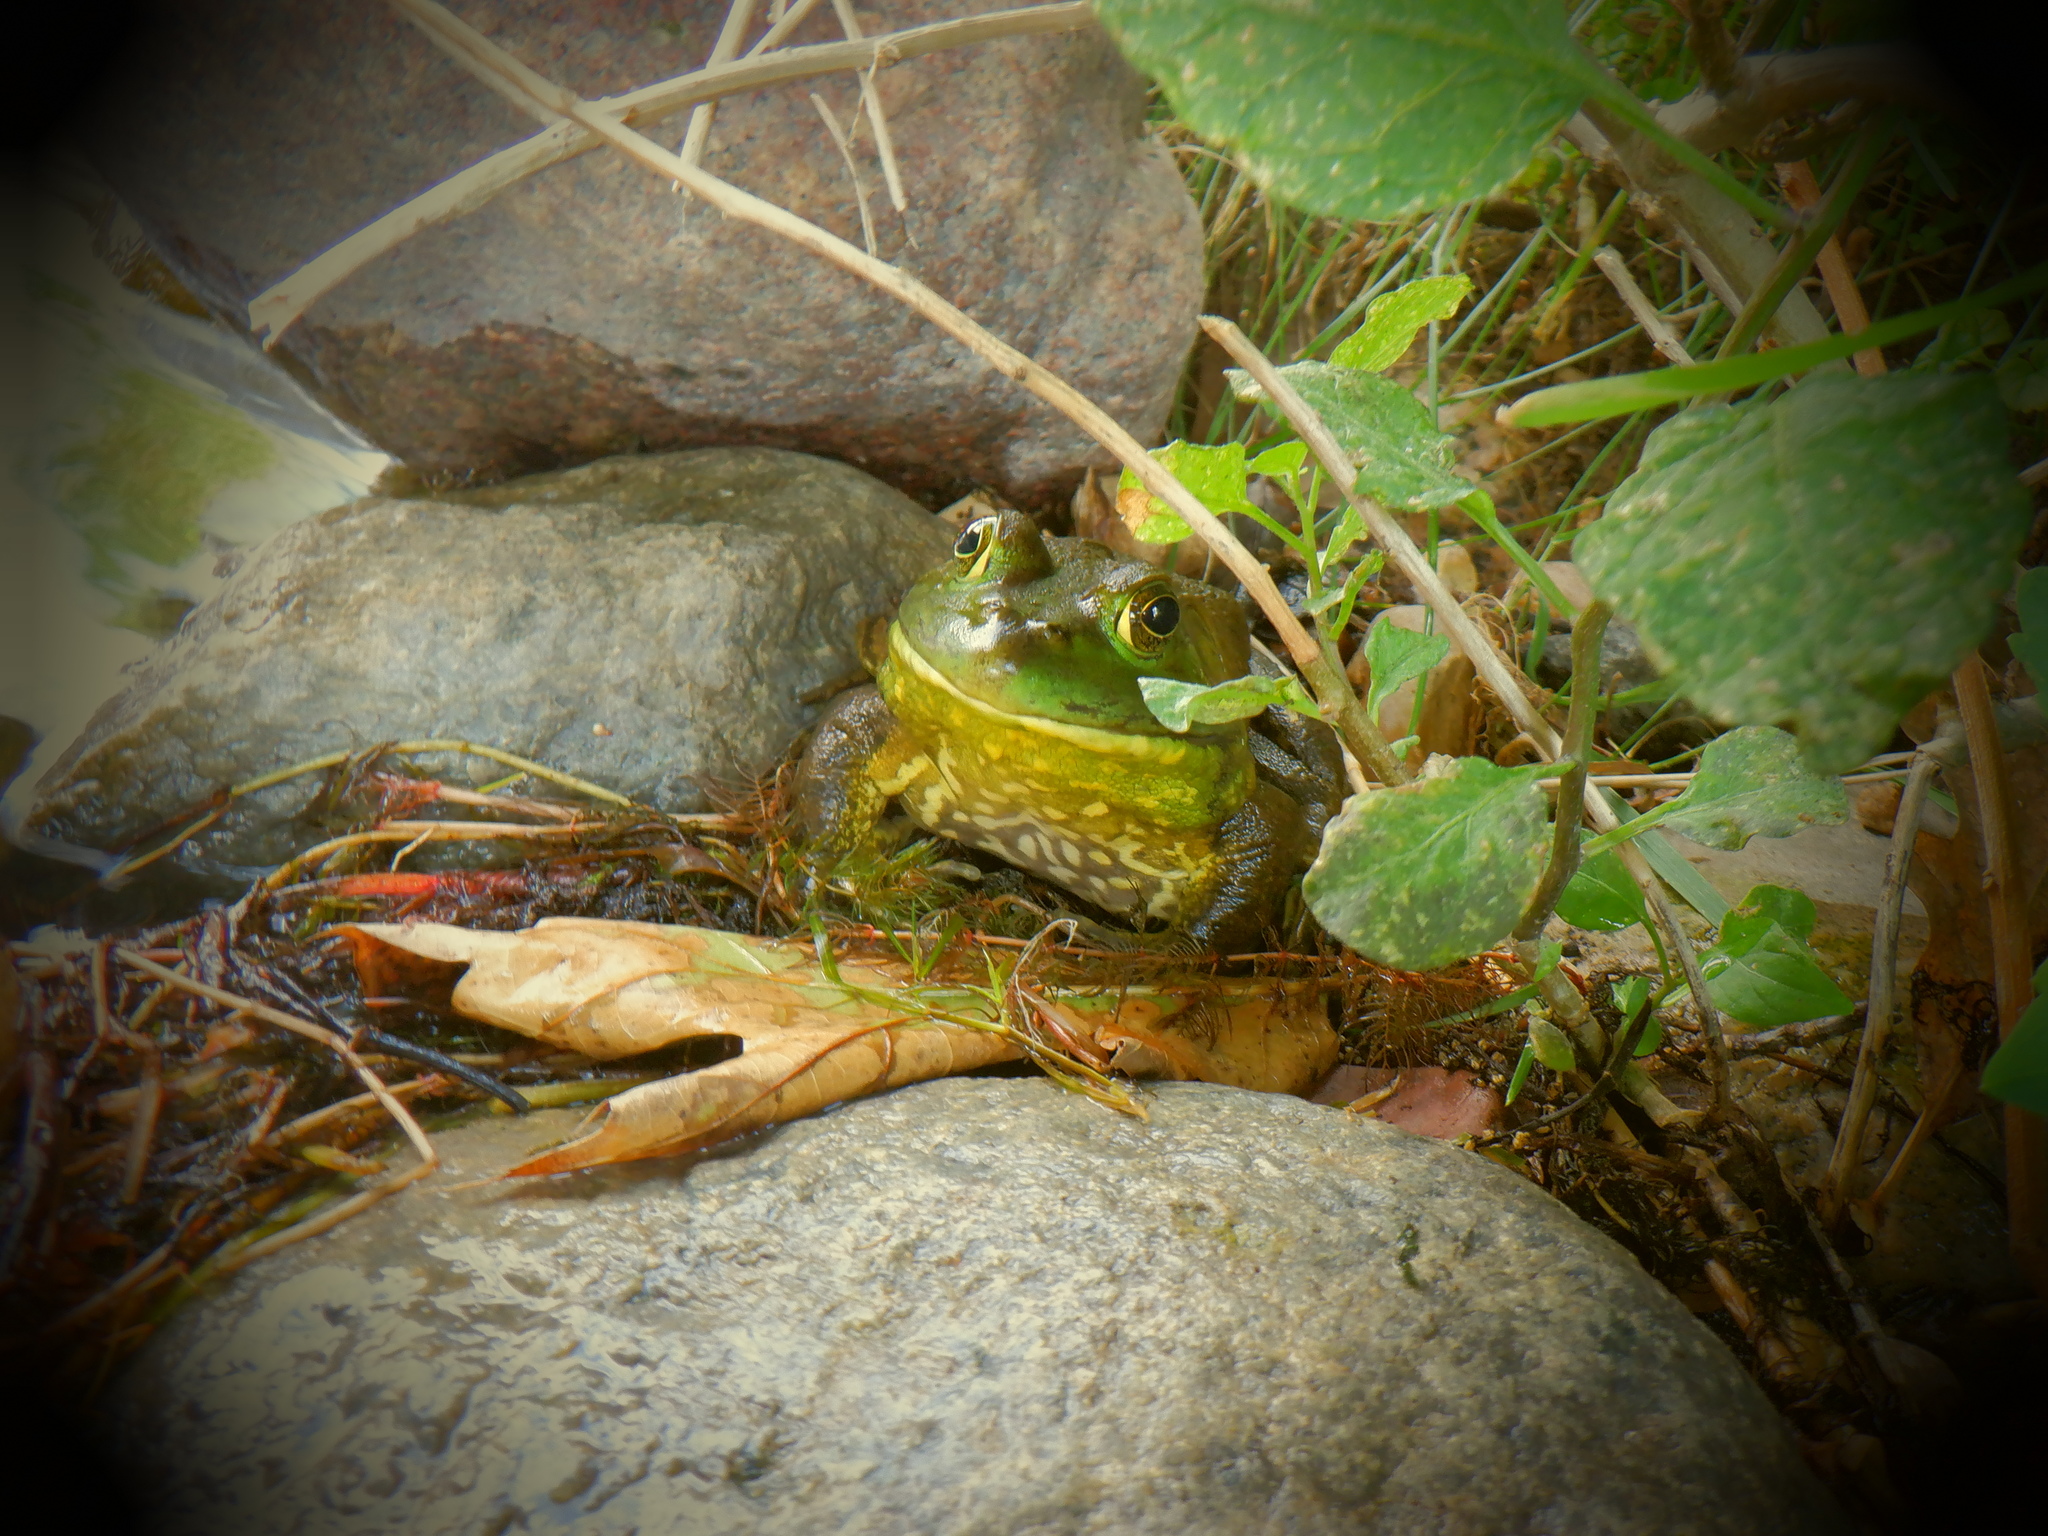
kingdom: Animalia
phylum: Chordata
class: Amphibia
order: Anura
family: Ranidae
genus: Lithobates
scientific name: Lithobates catesbeianus
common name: American bullfrog
